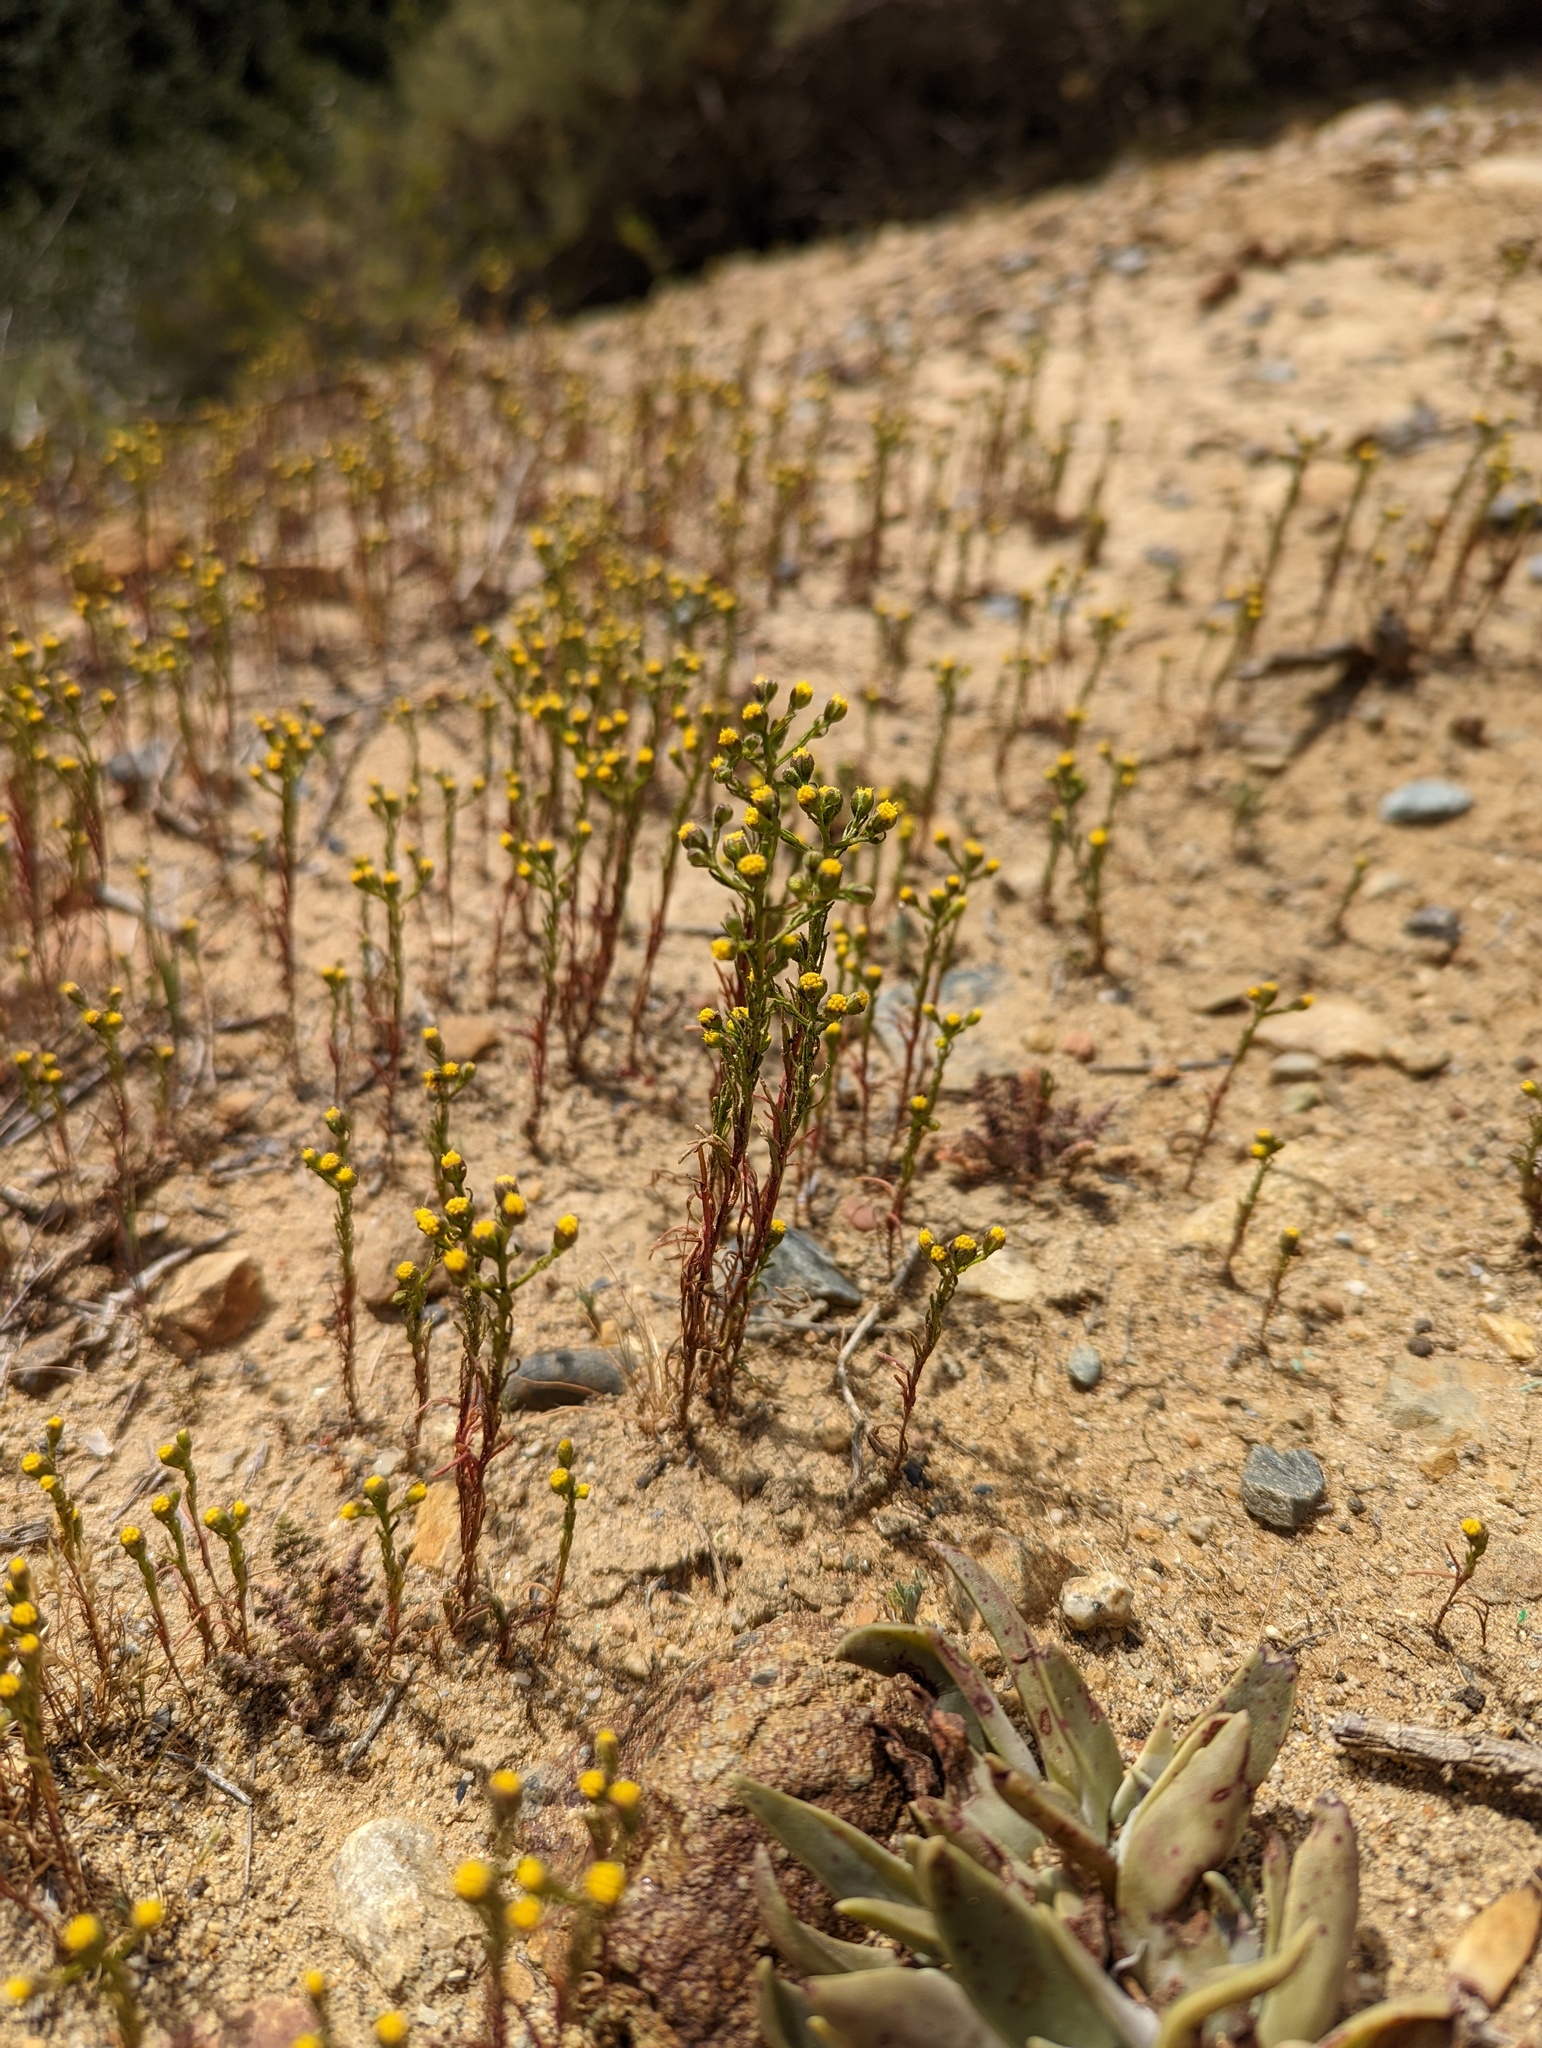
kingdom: Plantae
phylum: Tracheophyta
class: Magnoliopsida
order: Asterales
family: Asteraceae
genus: Amblyopappus
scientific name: Amblyopappus pusillus
